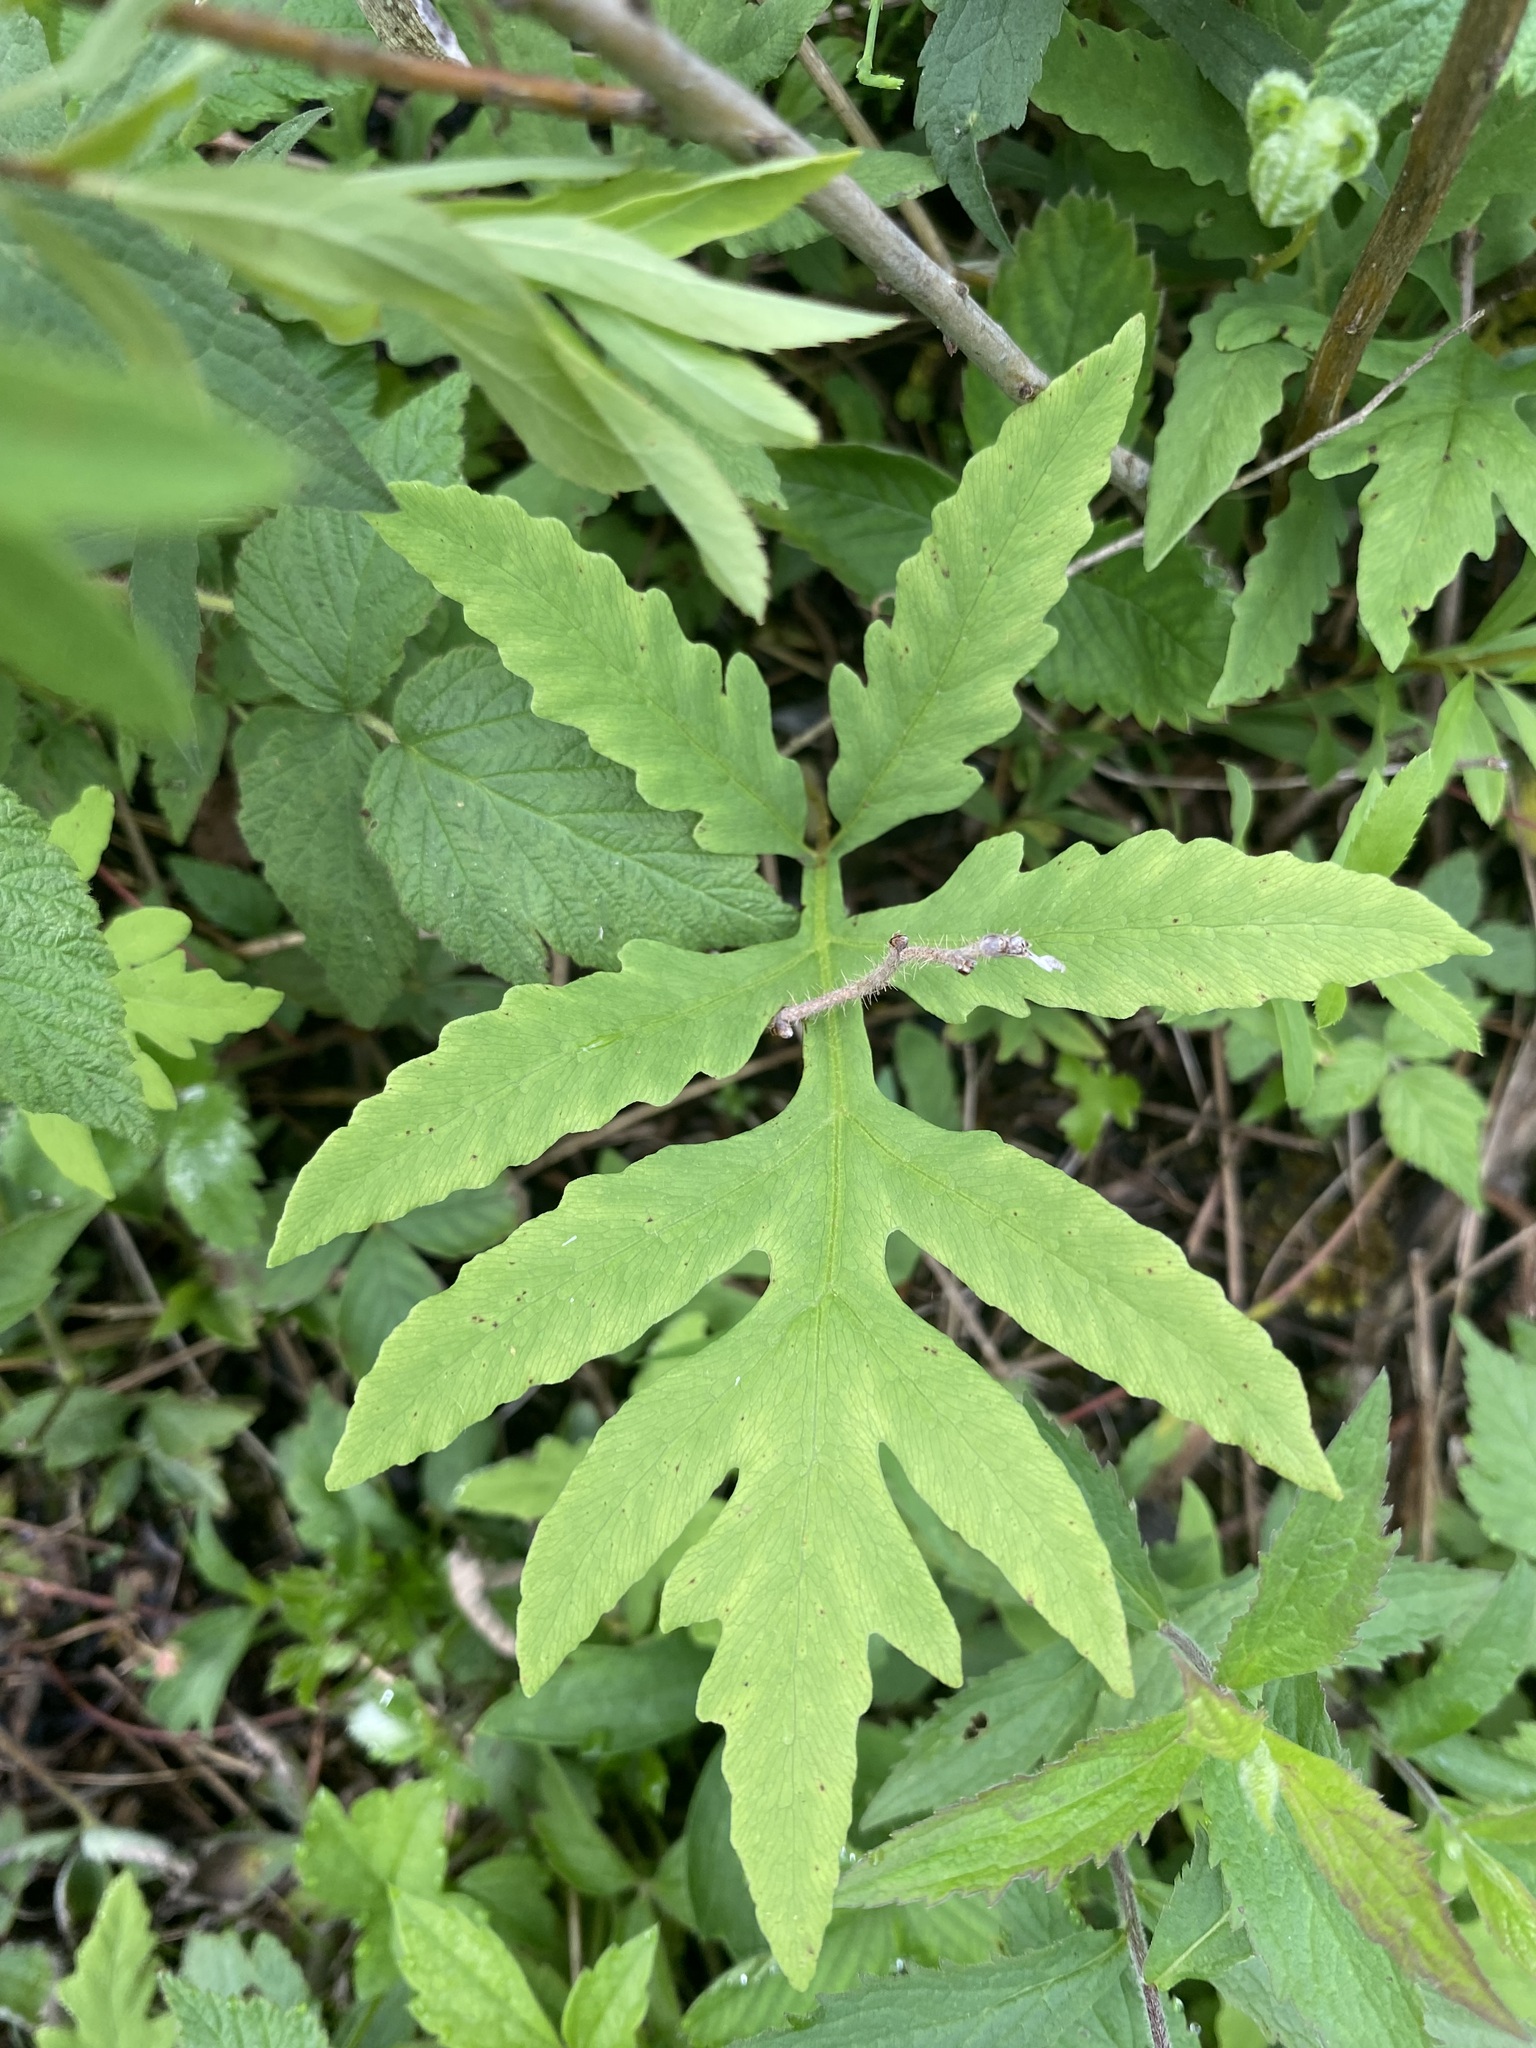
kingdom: Plantae
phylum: Tracheophyta
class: Polypodiopsida
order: Polypodiales
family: Onocleaceae
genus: Onoclea
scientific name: Onoclea sensibilis
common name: Sensitive fern
